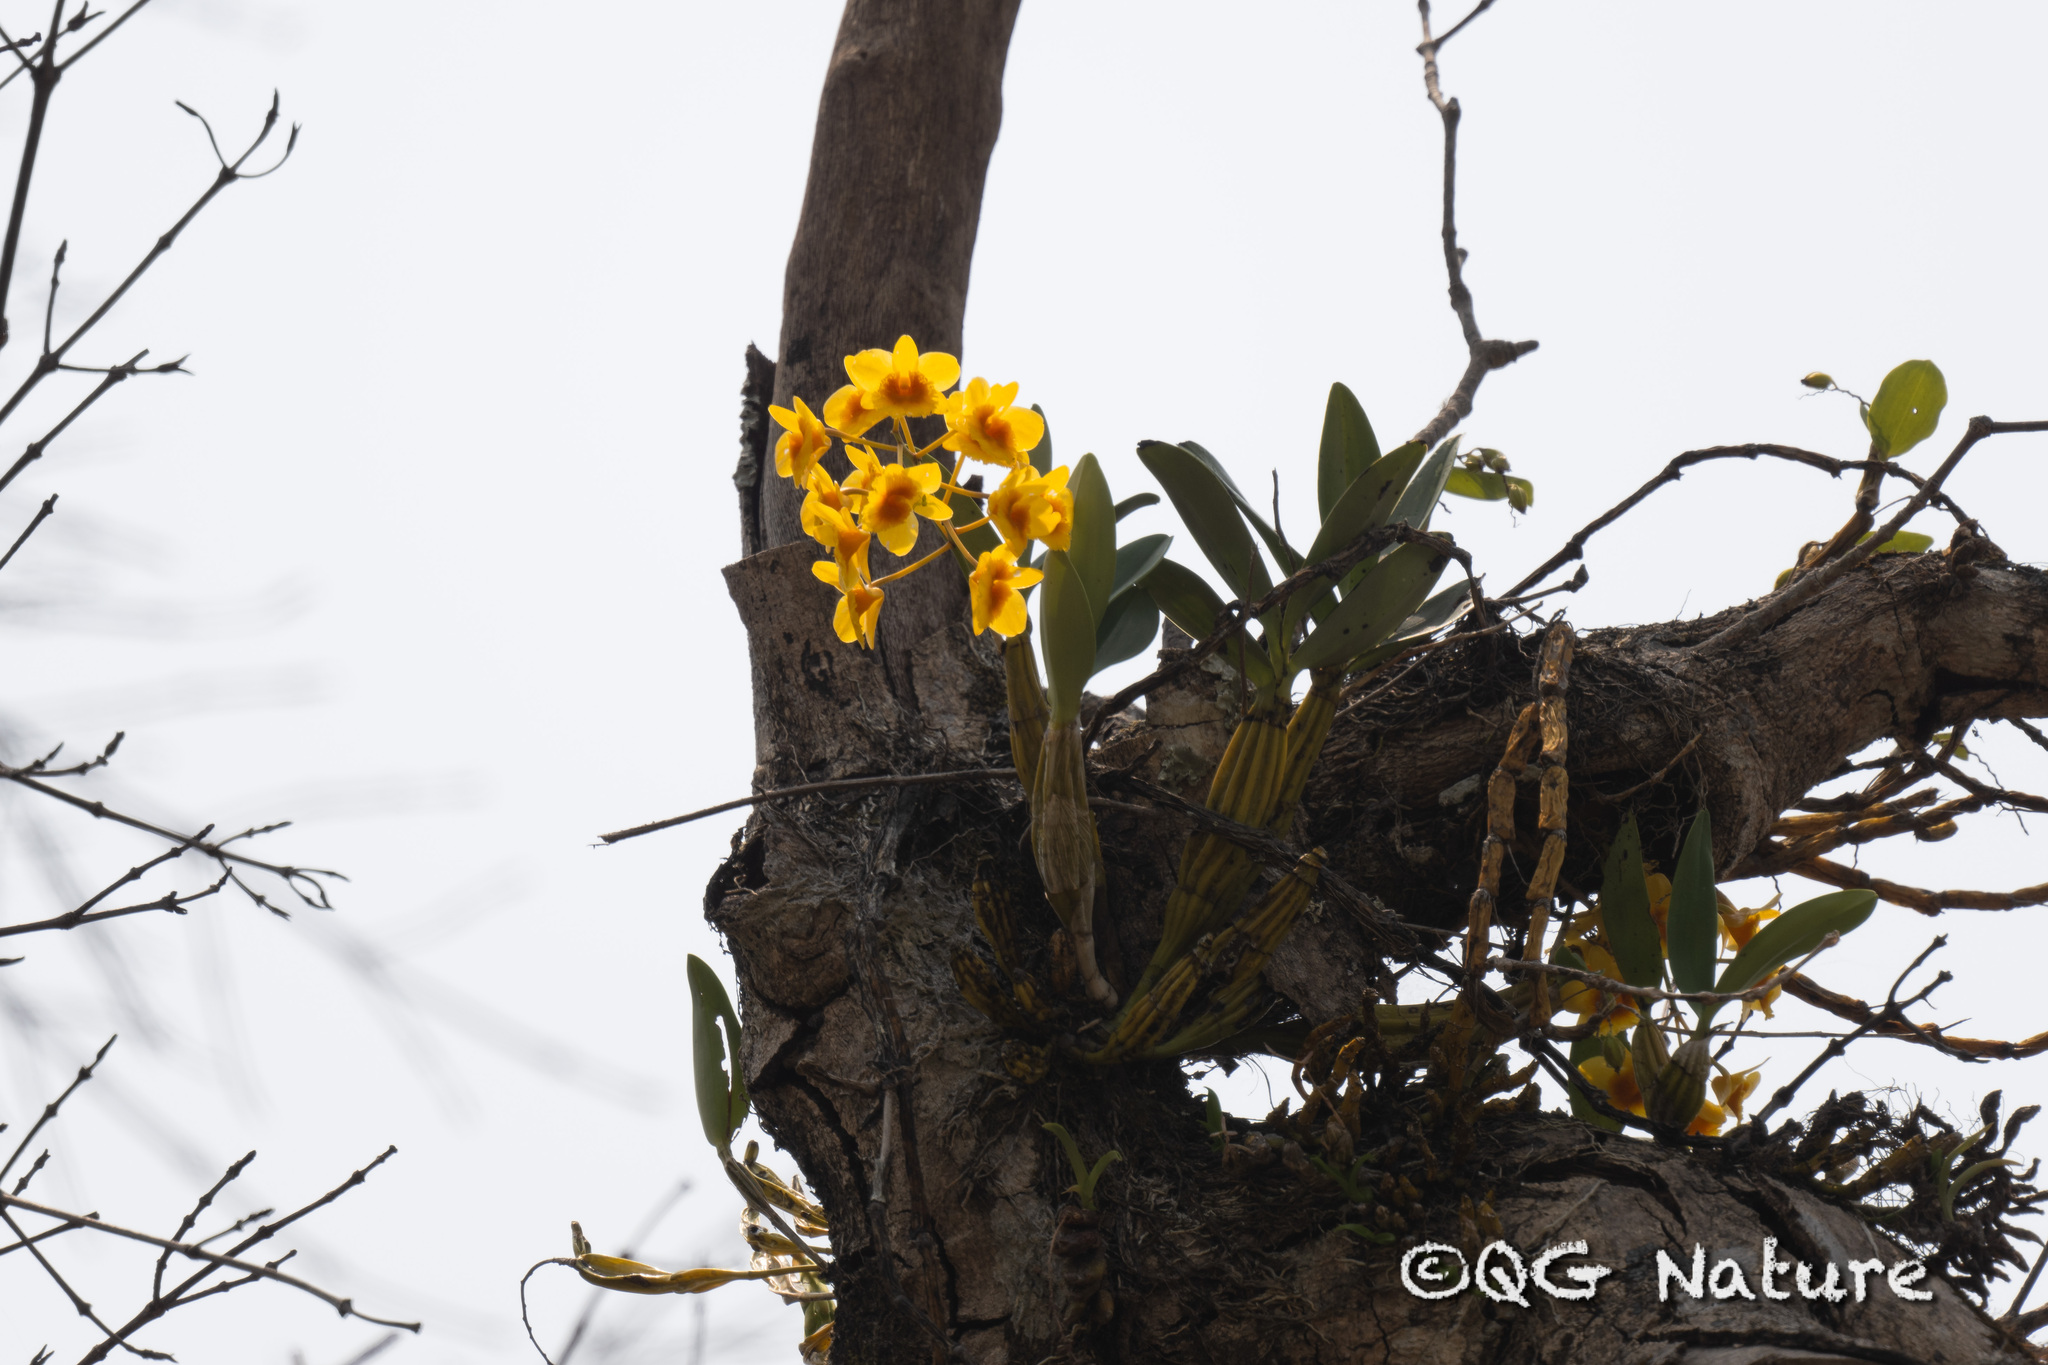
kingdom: Plantae
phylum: Tracheophyta
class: Liliopsida
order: Asparagales
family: Orchidaceae
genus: Dendrobium
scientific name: Dendrobium chrysotoxum
